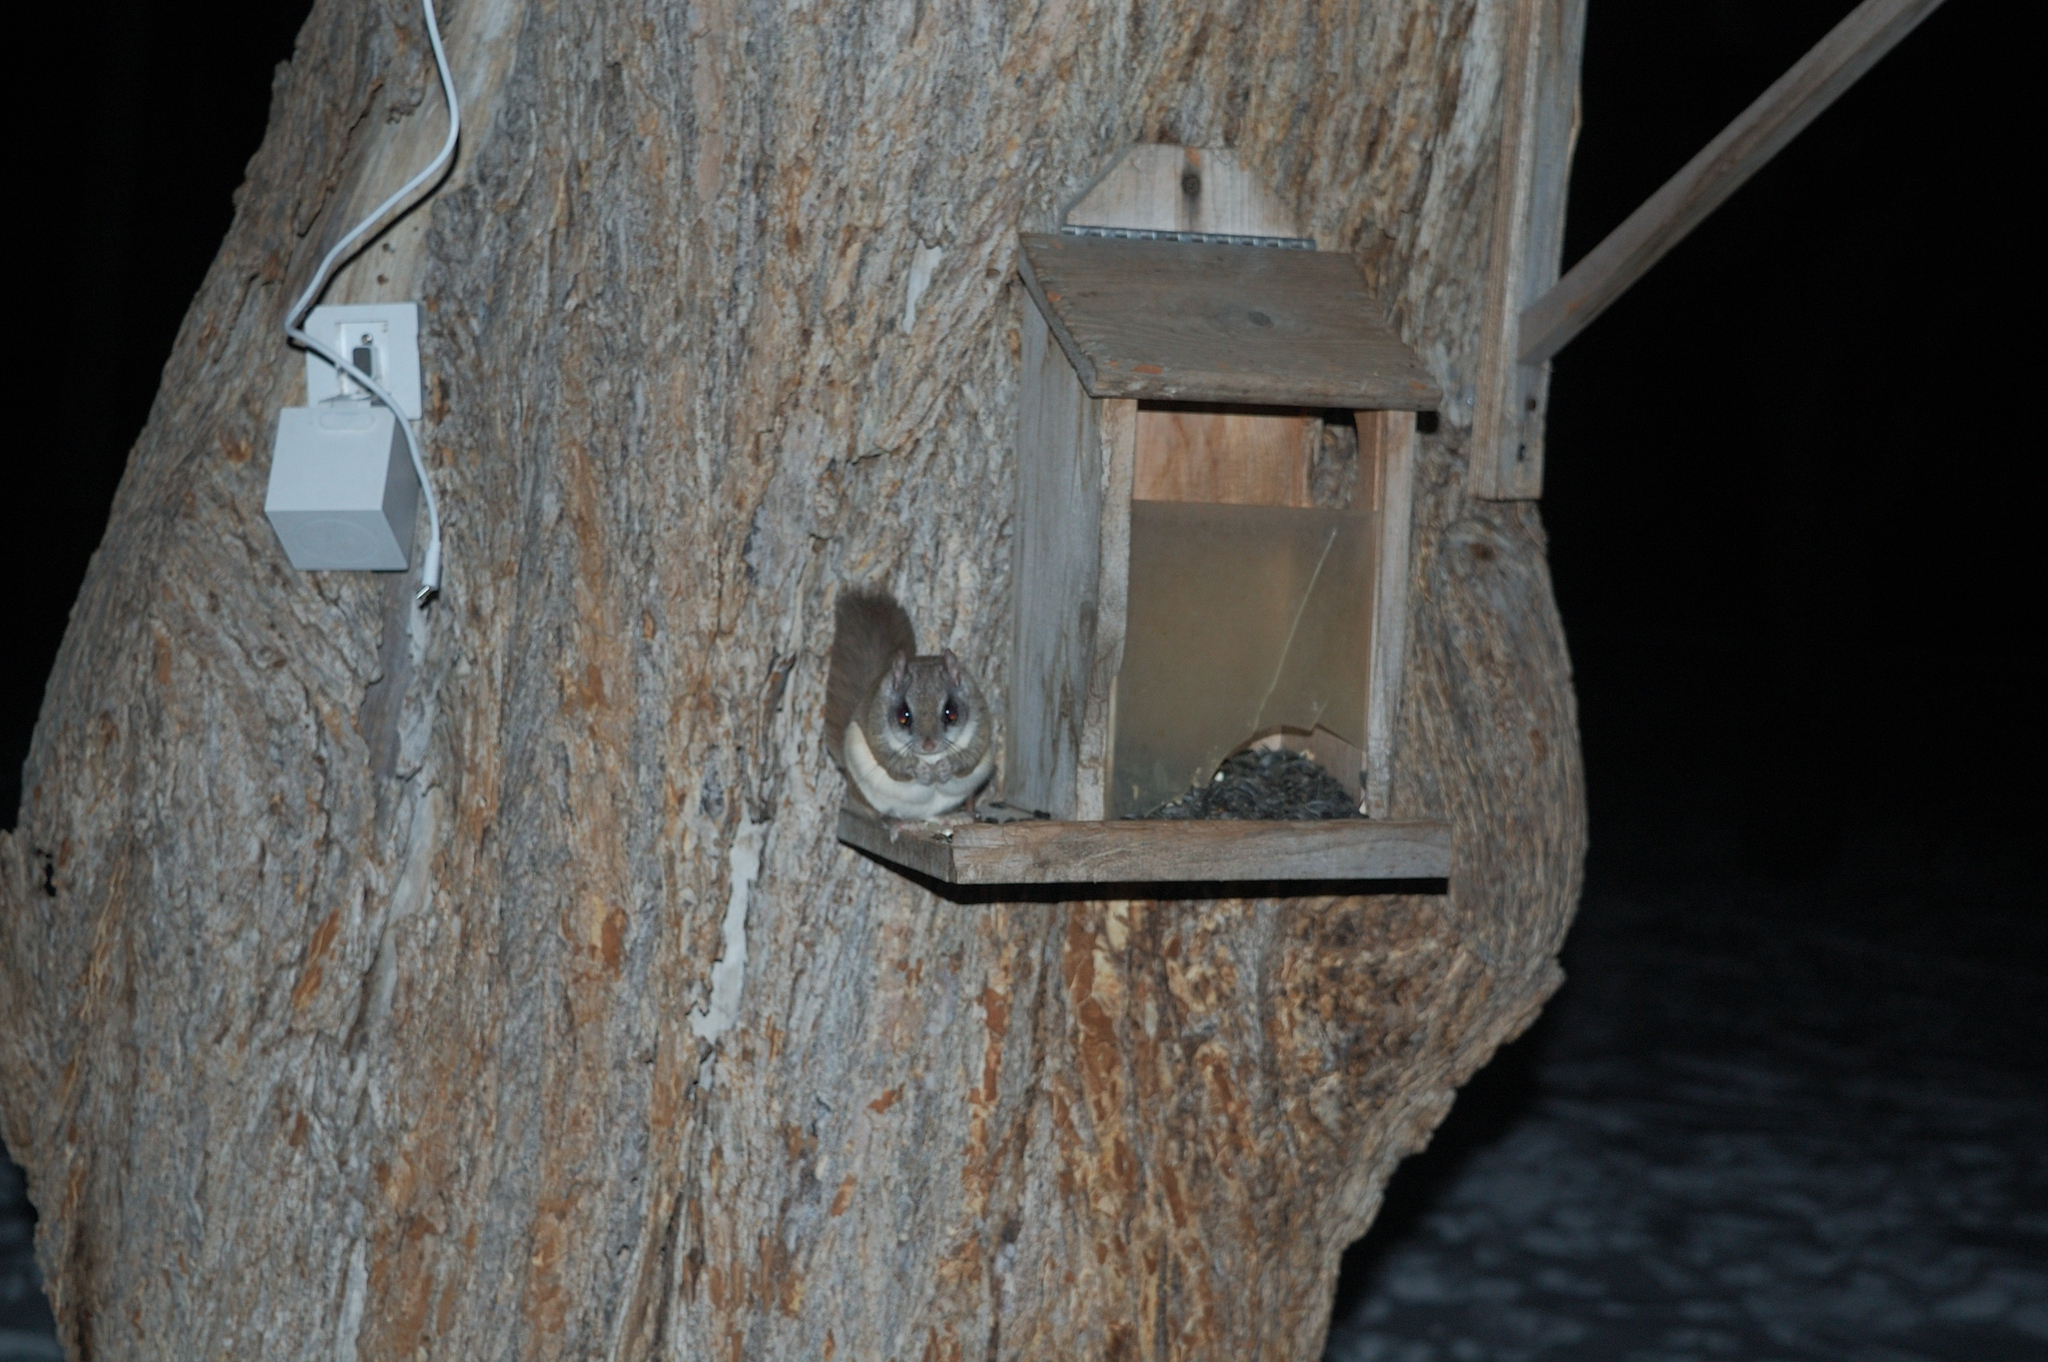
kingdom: Animalia
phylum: Chordata
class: Mammalia
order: Rodentia
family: Sciuridae
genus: Glaucomys
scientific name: Glaucomys volans
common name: Southern flying squirrel
